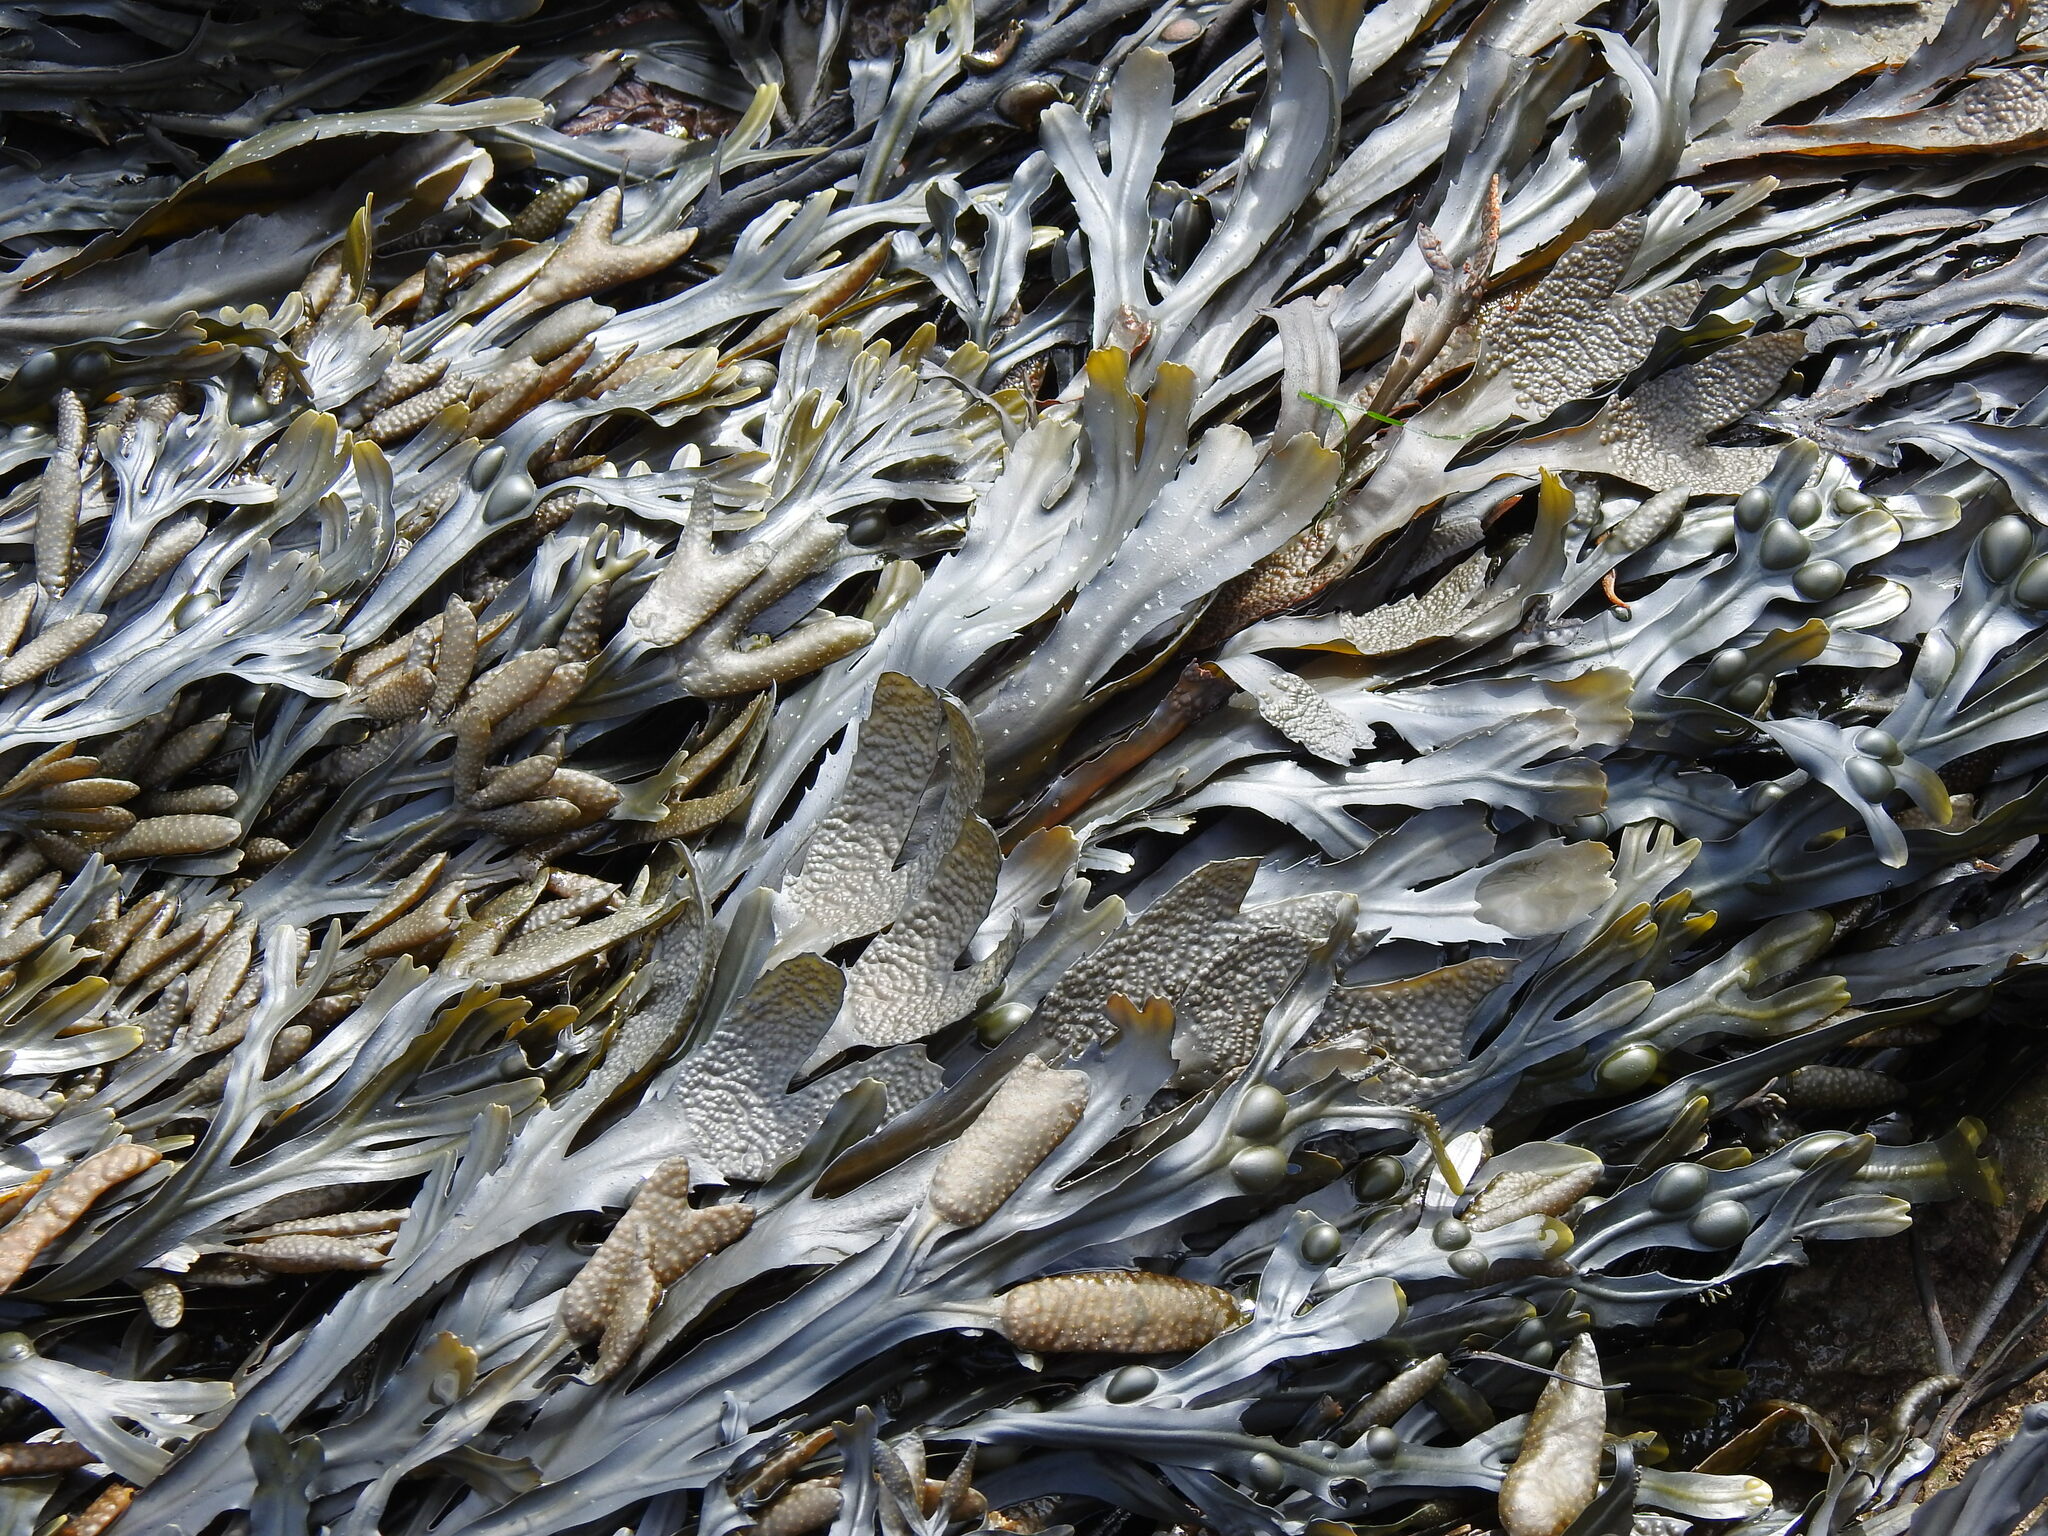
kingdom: Chromista
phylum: Ochrophyta
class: Phaeophyceae
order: Fucales
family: Fucaceae
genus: Fucus
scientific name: Fucus serratus
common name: Toothed wrack
